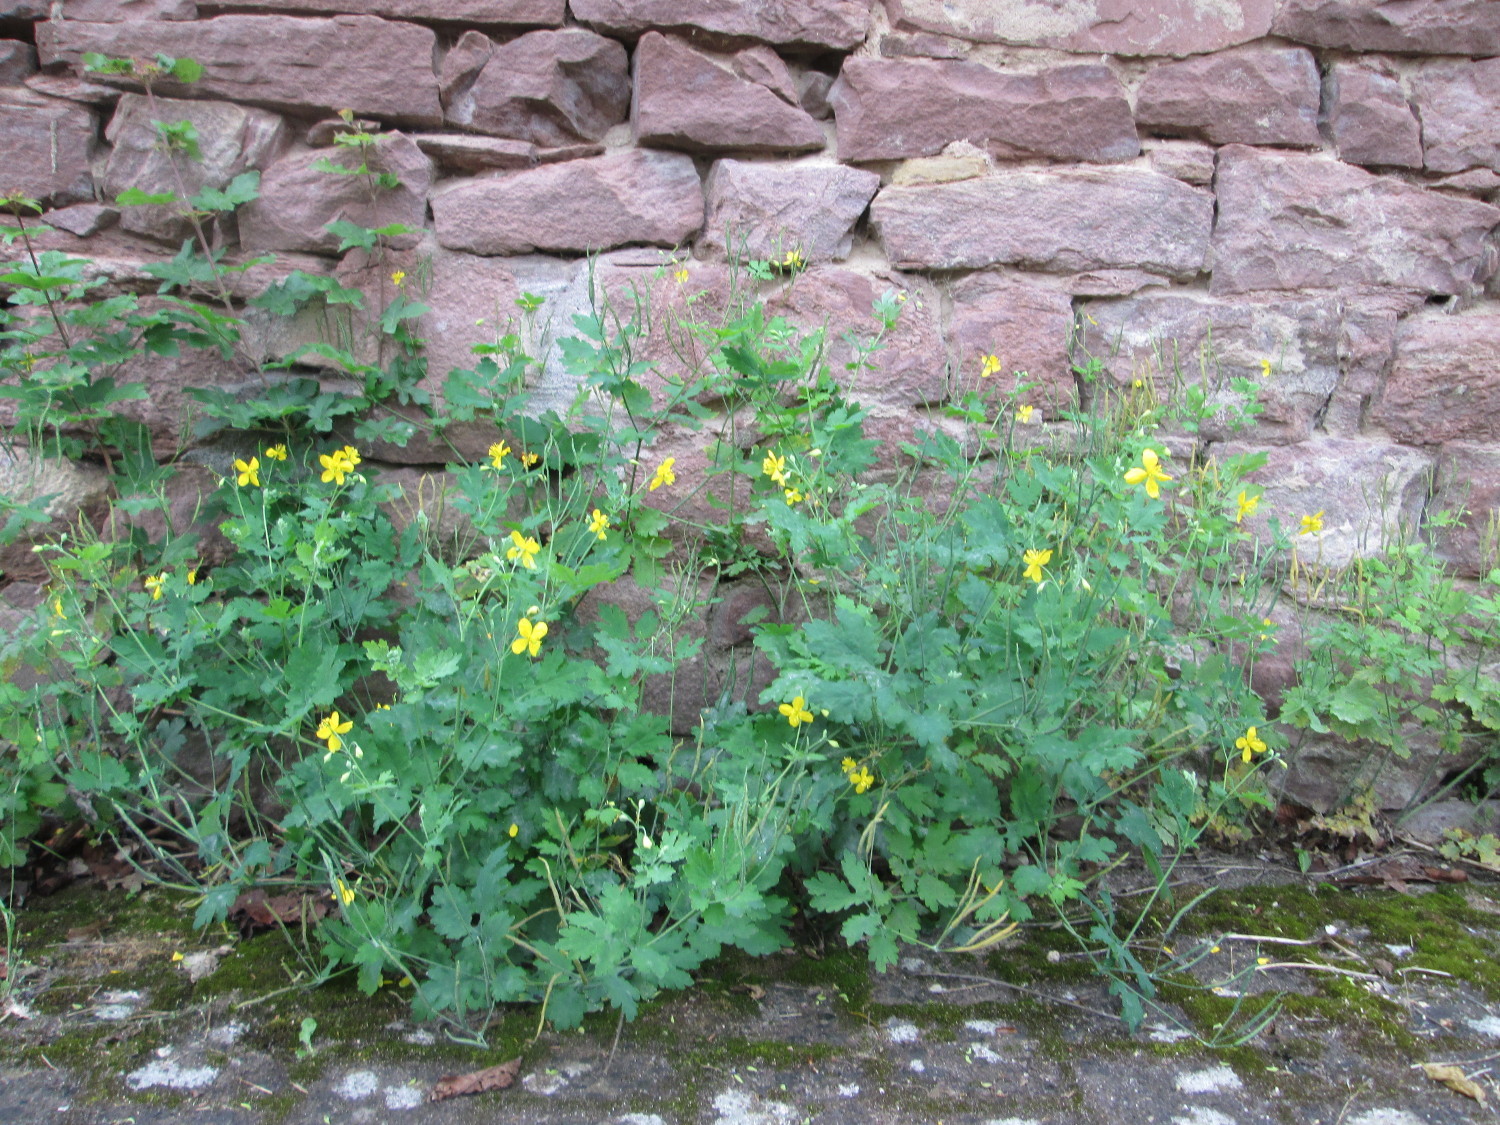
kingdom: Plantae
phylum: Tracheophyta
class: Magnoliopsida
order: Ranunculales
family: Papaveraceae
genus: Chelidonium
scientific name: Chelidonium majus
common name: Greater celandine
